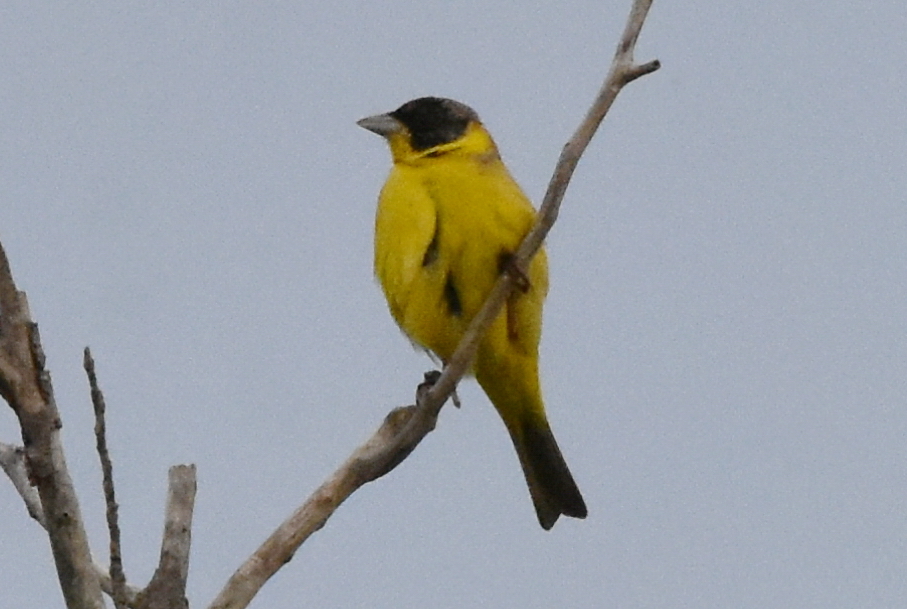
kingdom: Animalia
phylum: Chordata
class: Aves
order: Passeriformes
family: Emberizidae
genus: Emberiza
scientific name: Emberiza melanocephala
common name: Black-headed bunting
